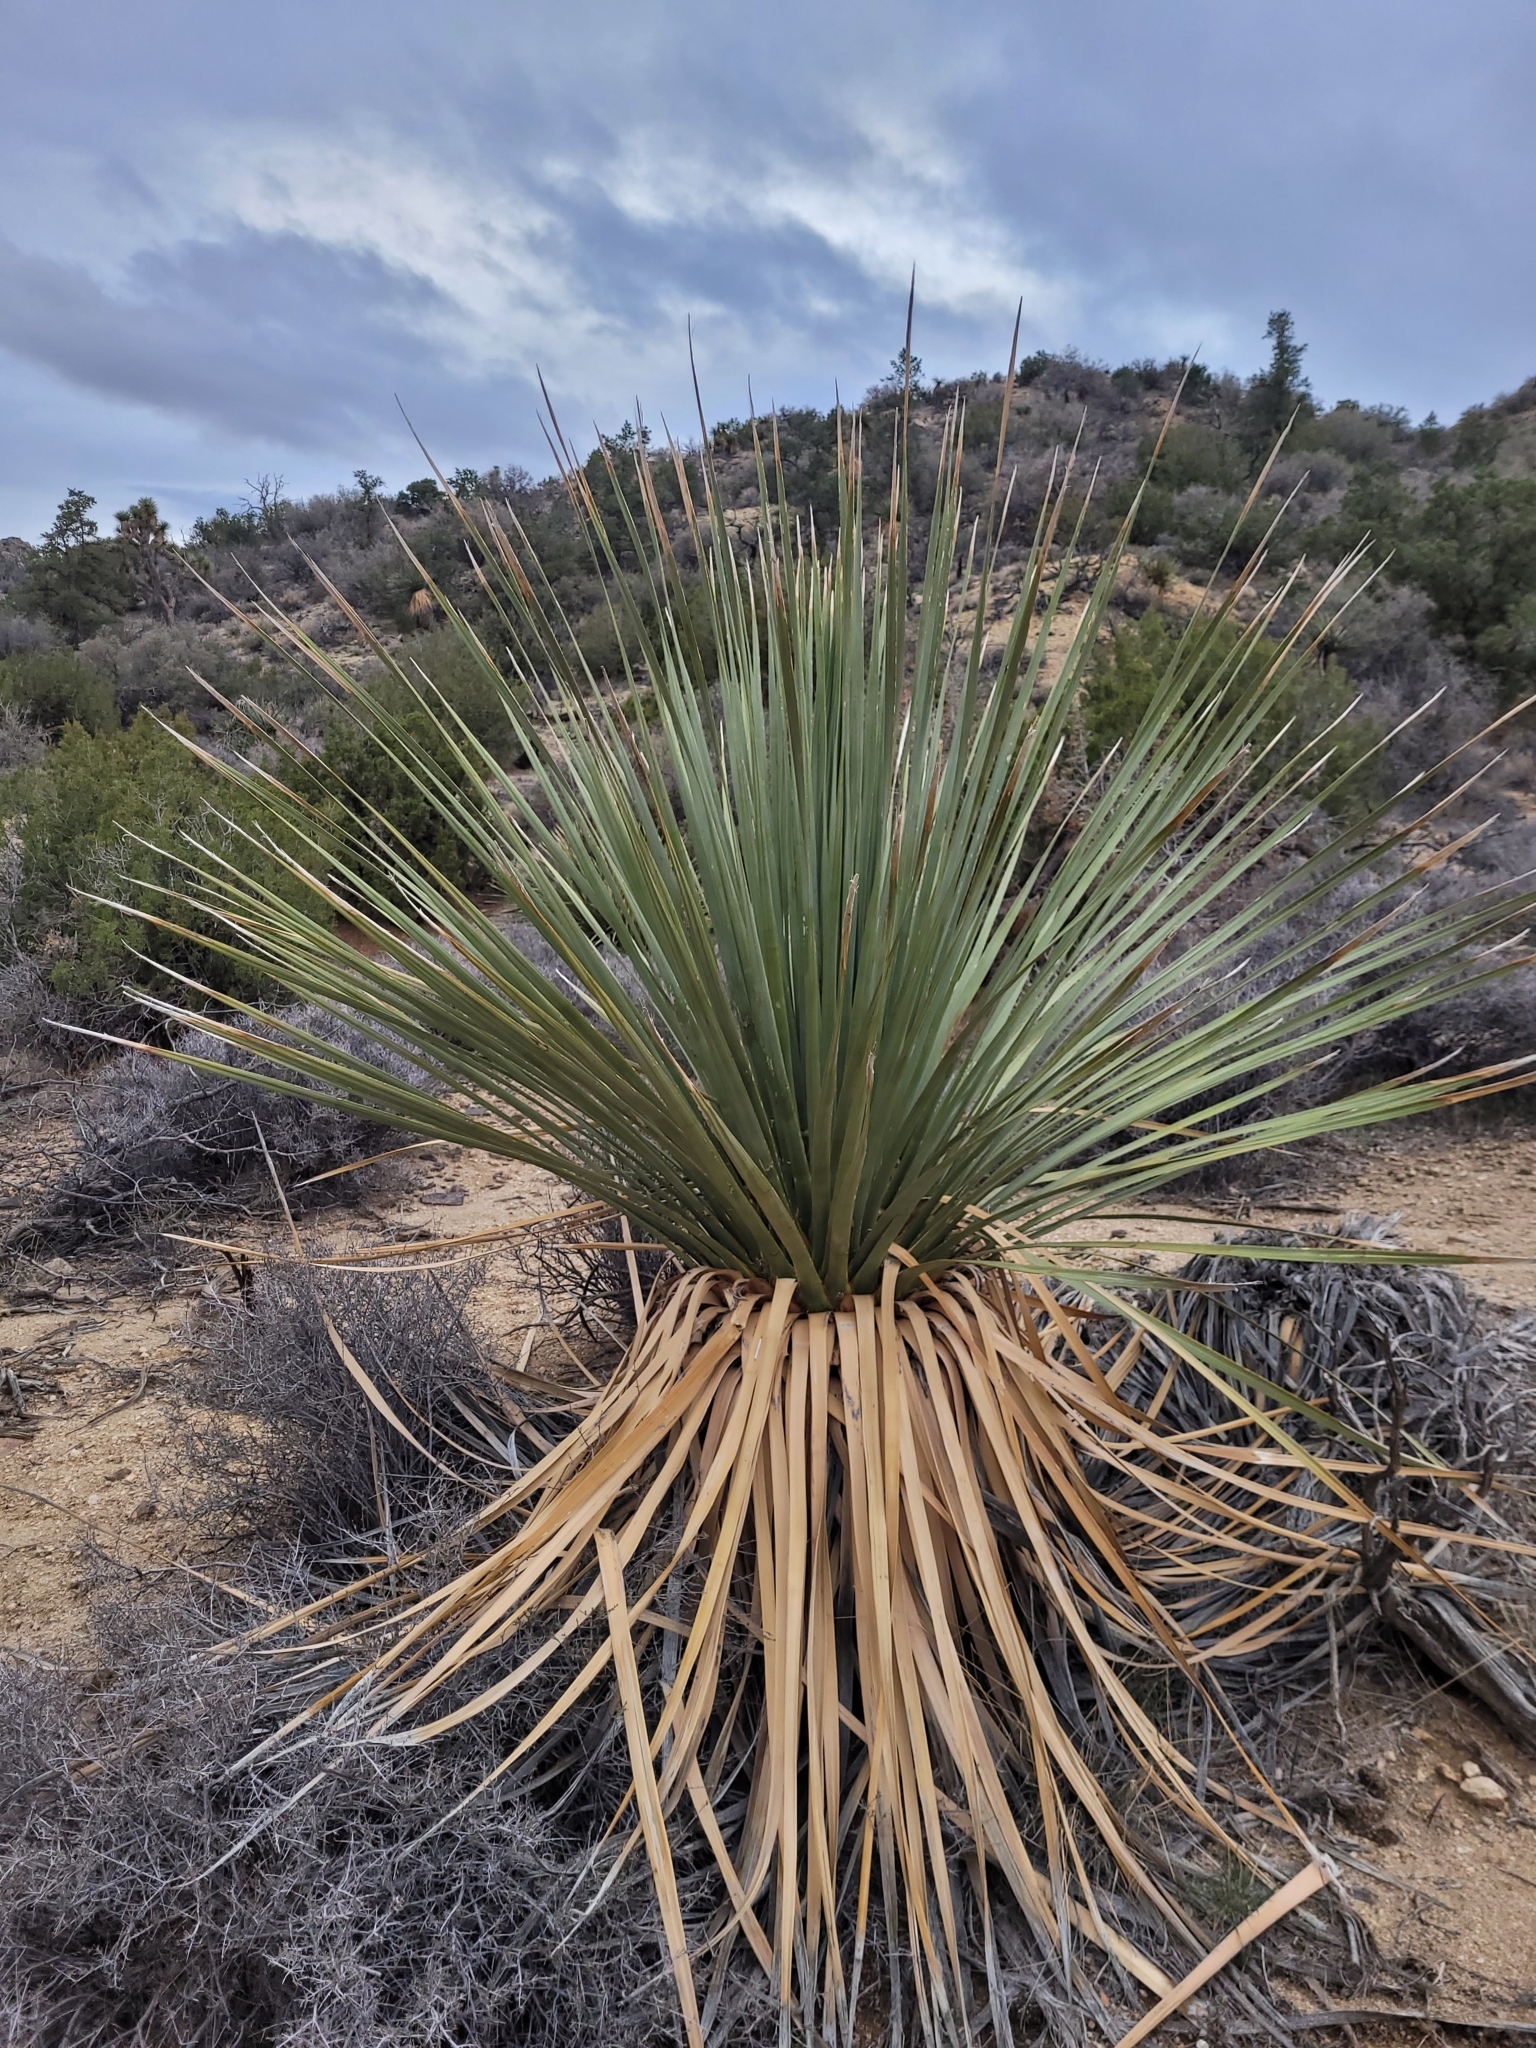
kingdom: Plantae
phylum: Tracheophyta
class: Liliopsida
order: Asparagales
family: Asparagaceae
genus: Nolina
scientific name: Nolina parryi
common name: Parry nolina
